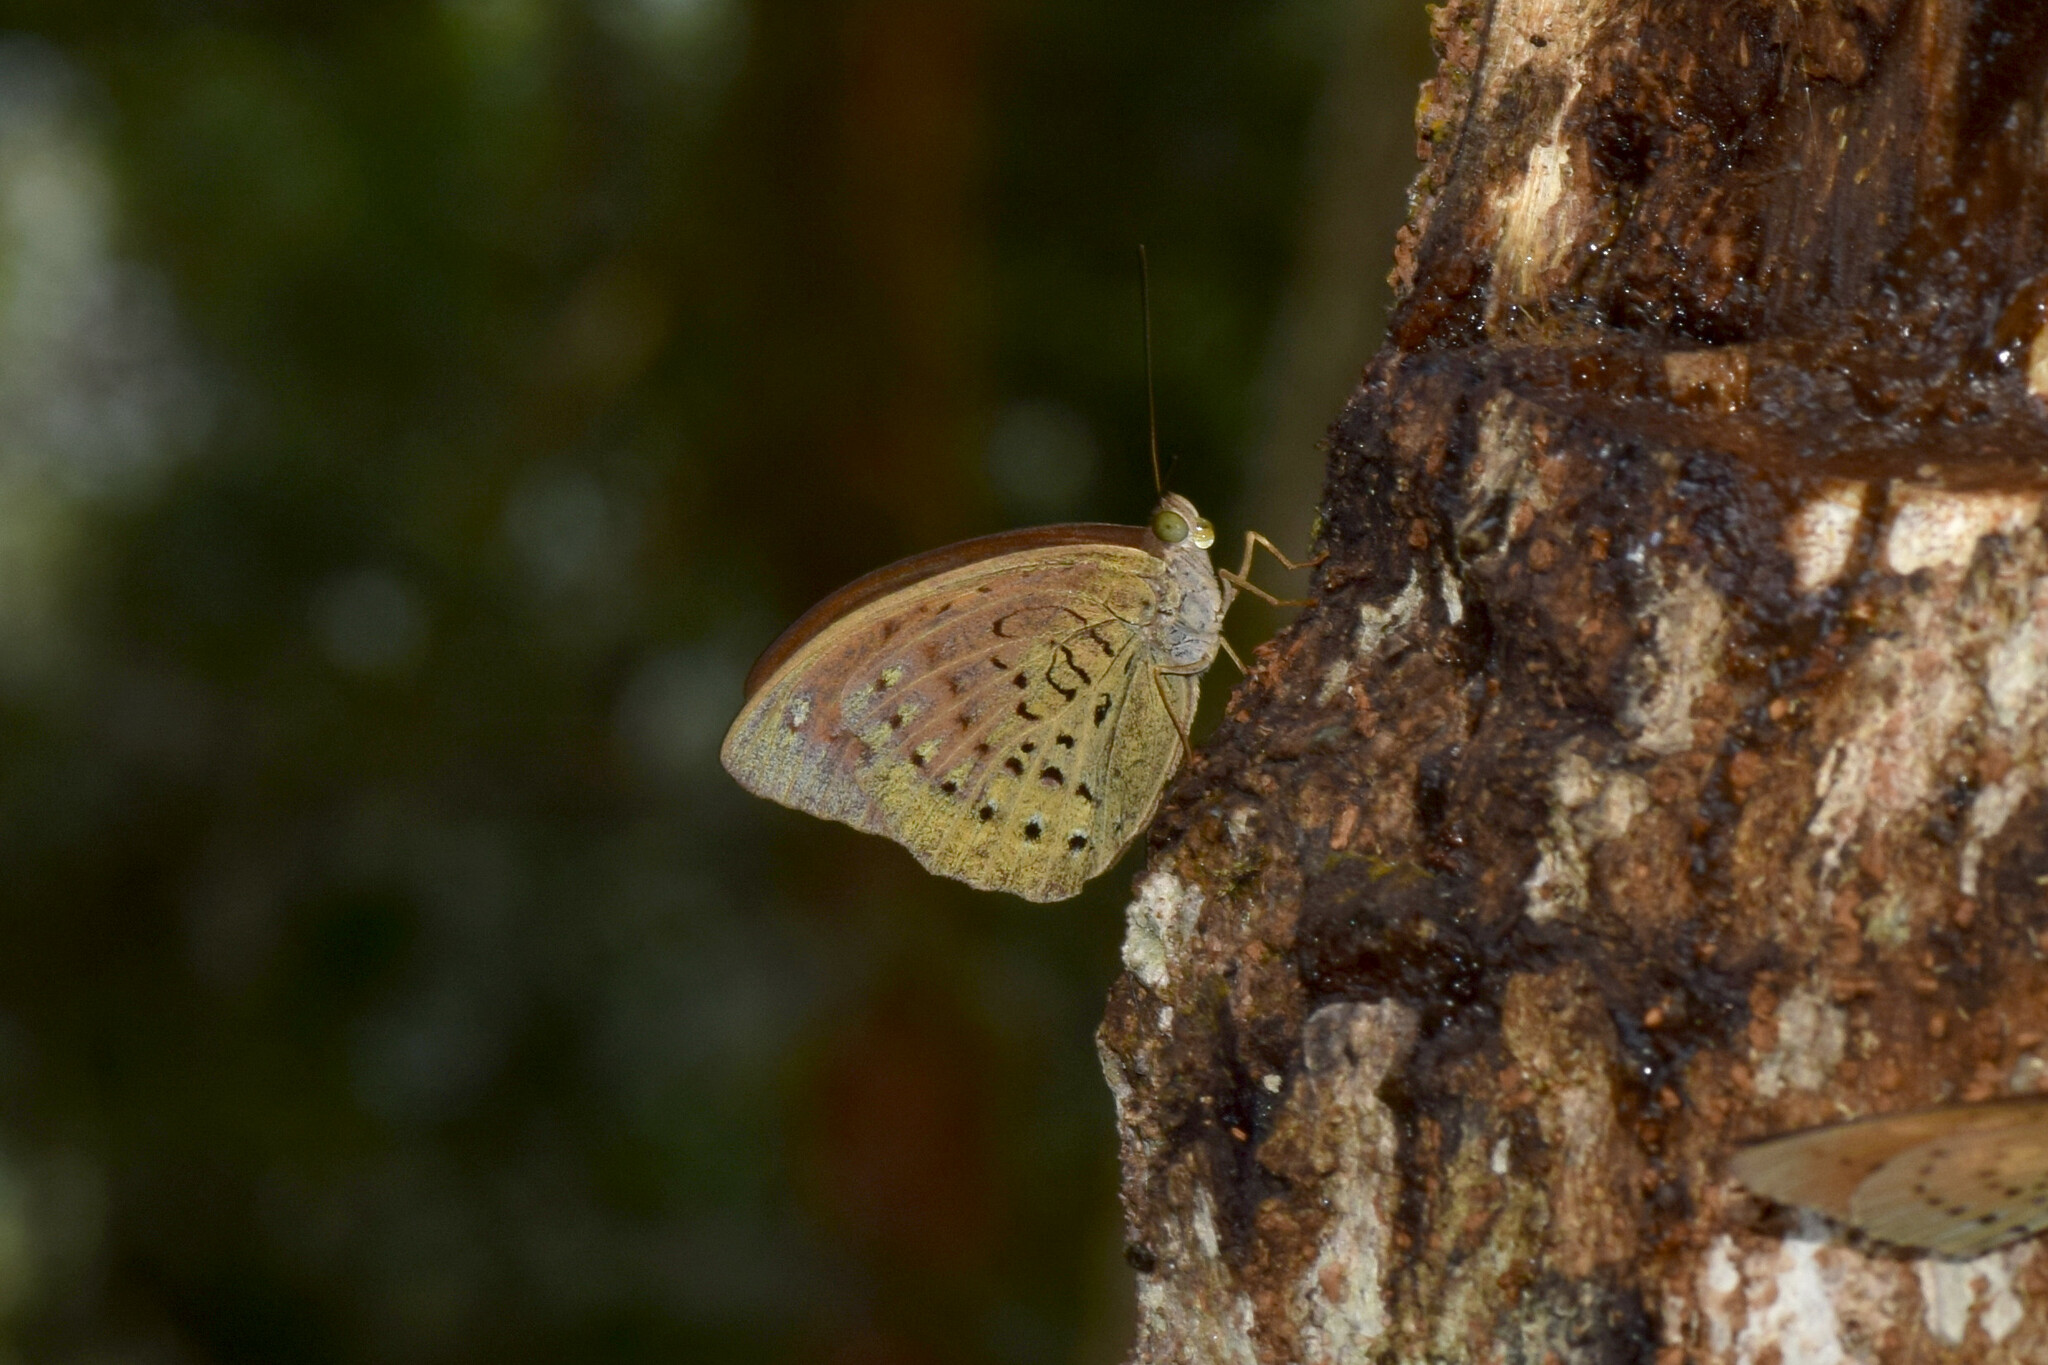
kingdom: Animalia
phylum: Arthropoda
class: Insecta
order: Lepidoptera
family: Nymphalidae
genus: Tanaecia
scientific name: Tanaecia julii
